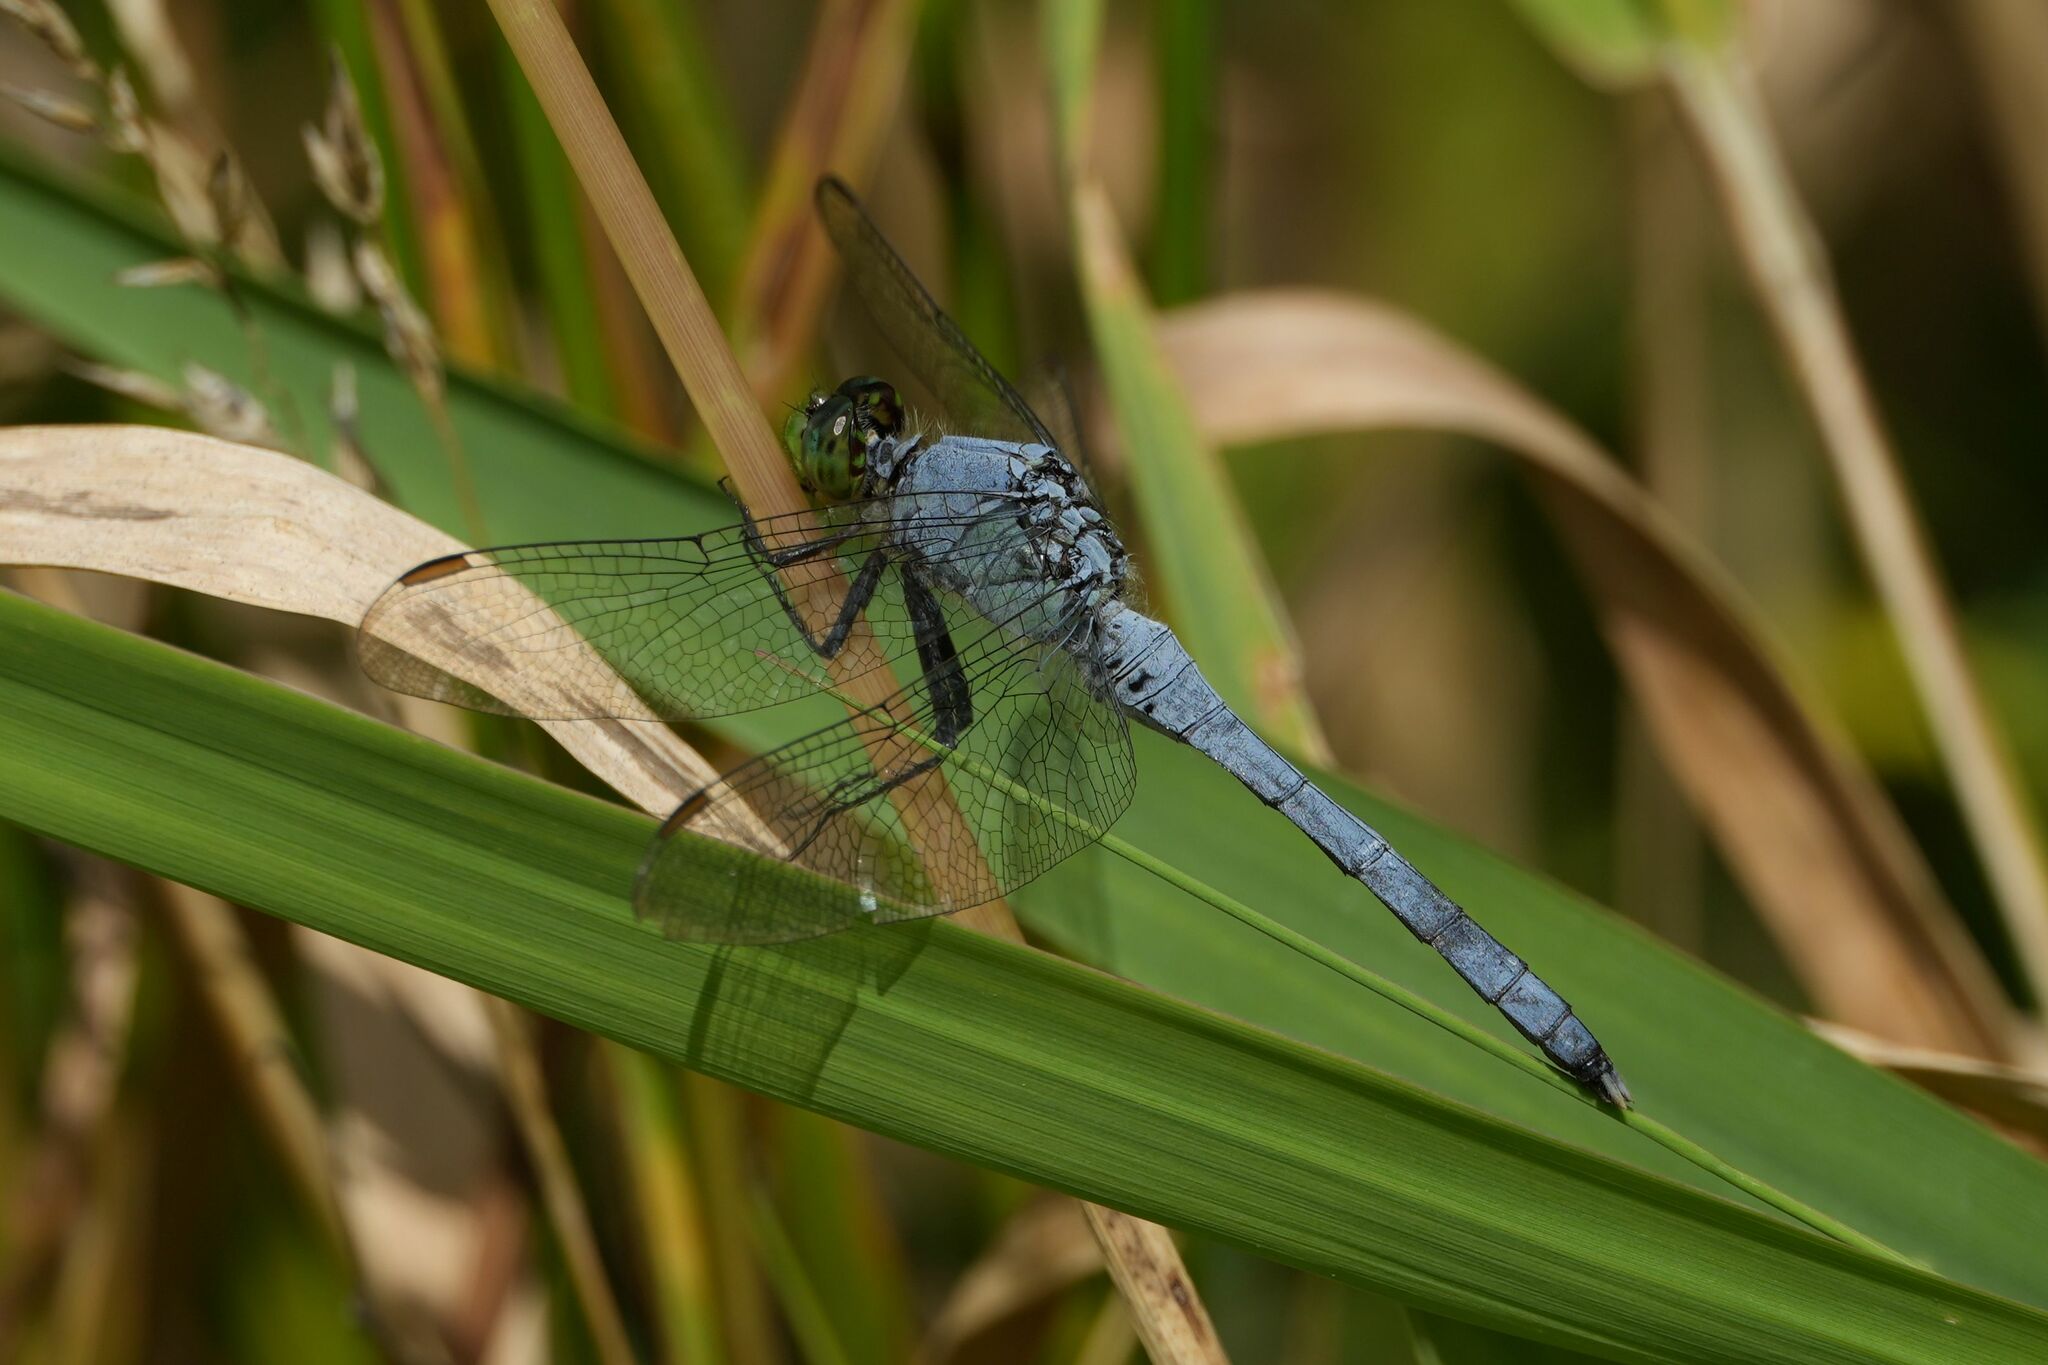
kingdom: Animalia
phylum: Arthropoda
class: Insecta
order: Odonata
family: Libellulidae
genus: Erythemis
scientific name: Erythemis simplicicollis
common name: Eastern pondhawk
